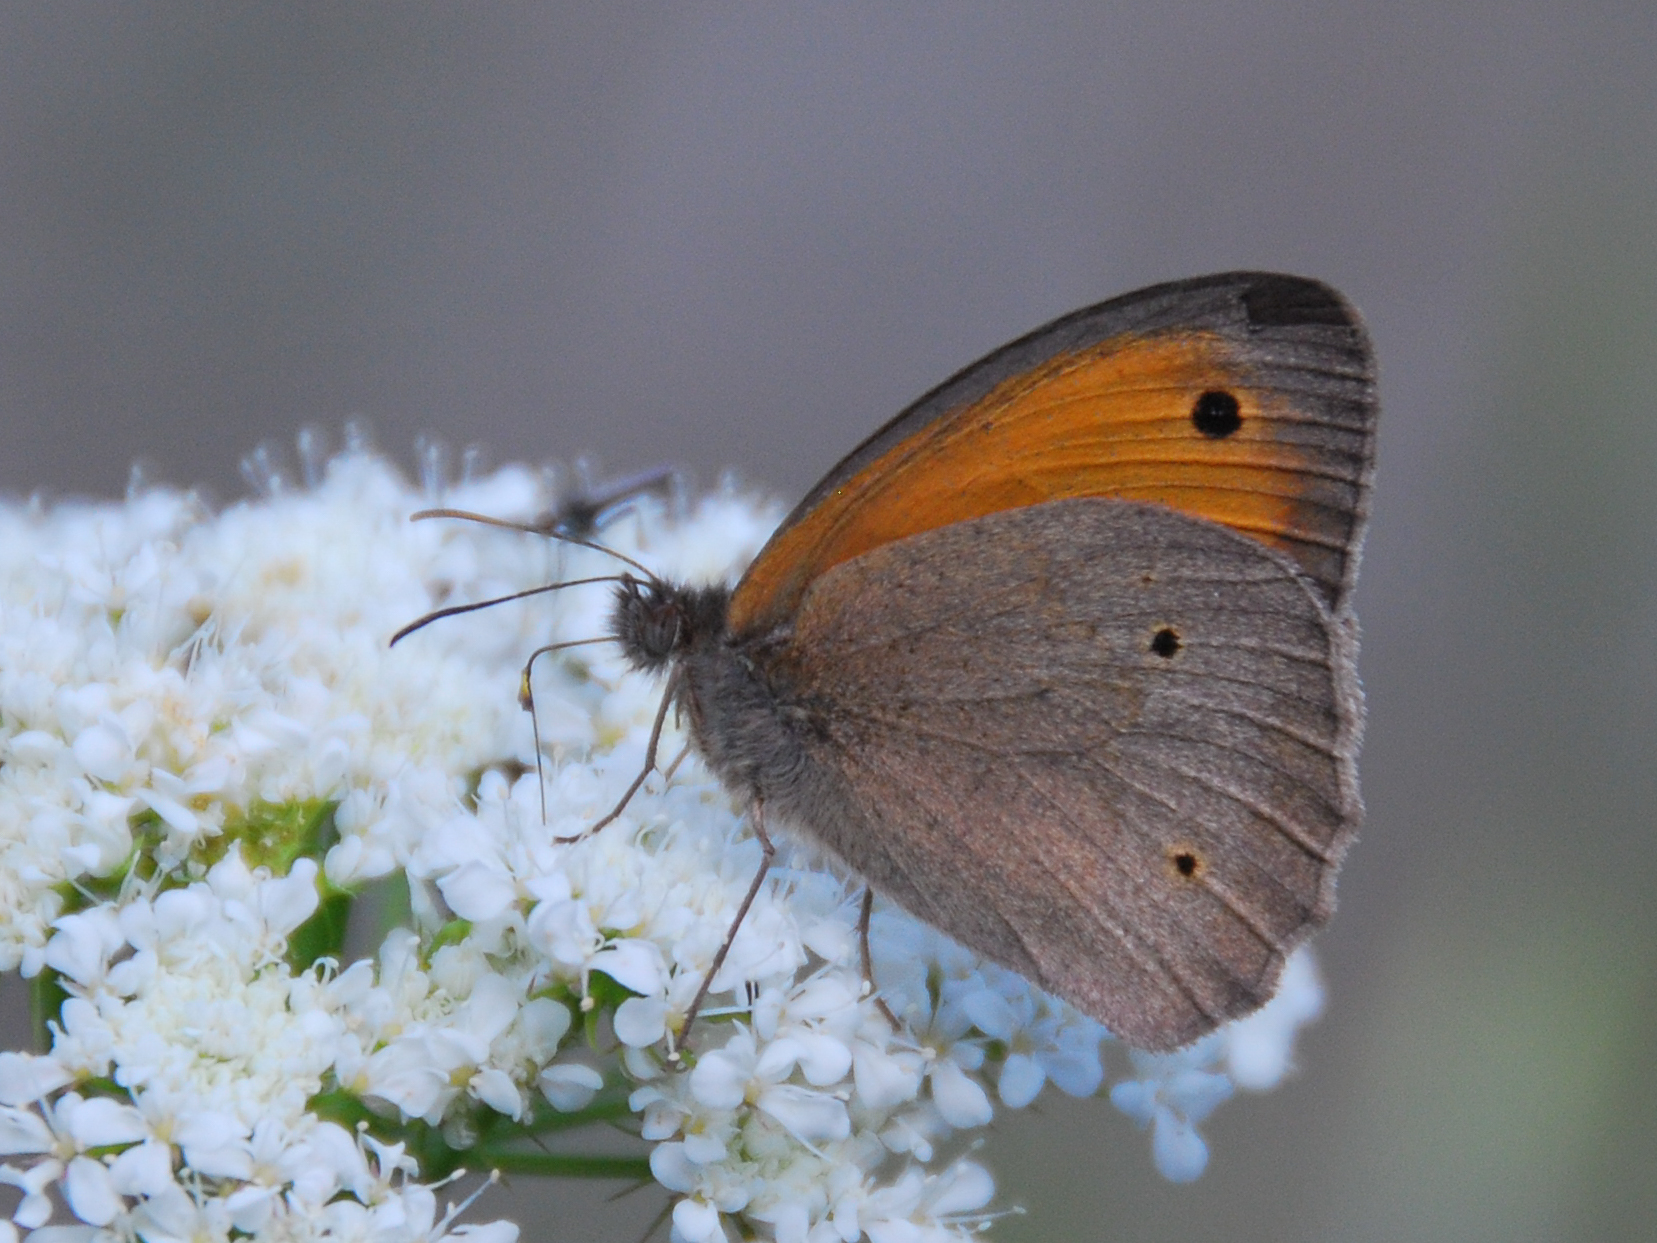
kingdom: Animalia
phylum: Arthropoda
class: Insecta
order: Lepidoptera
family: Nymphalidae
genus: Maniola
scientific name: Maniola jurtina
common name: Meadow brown
